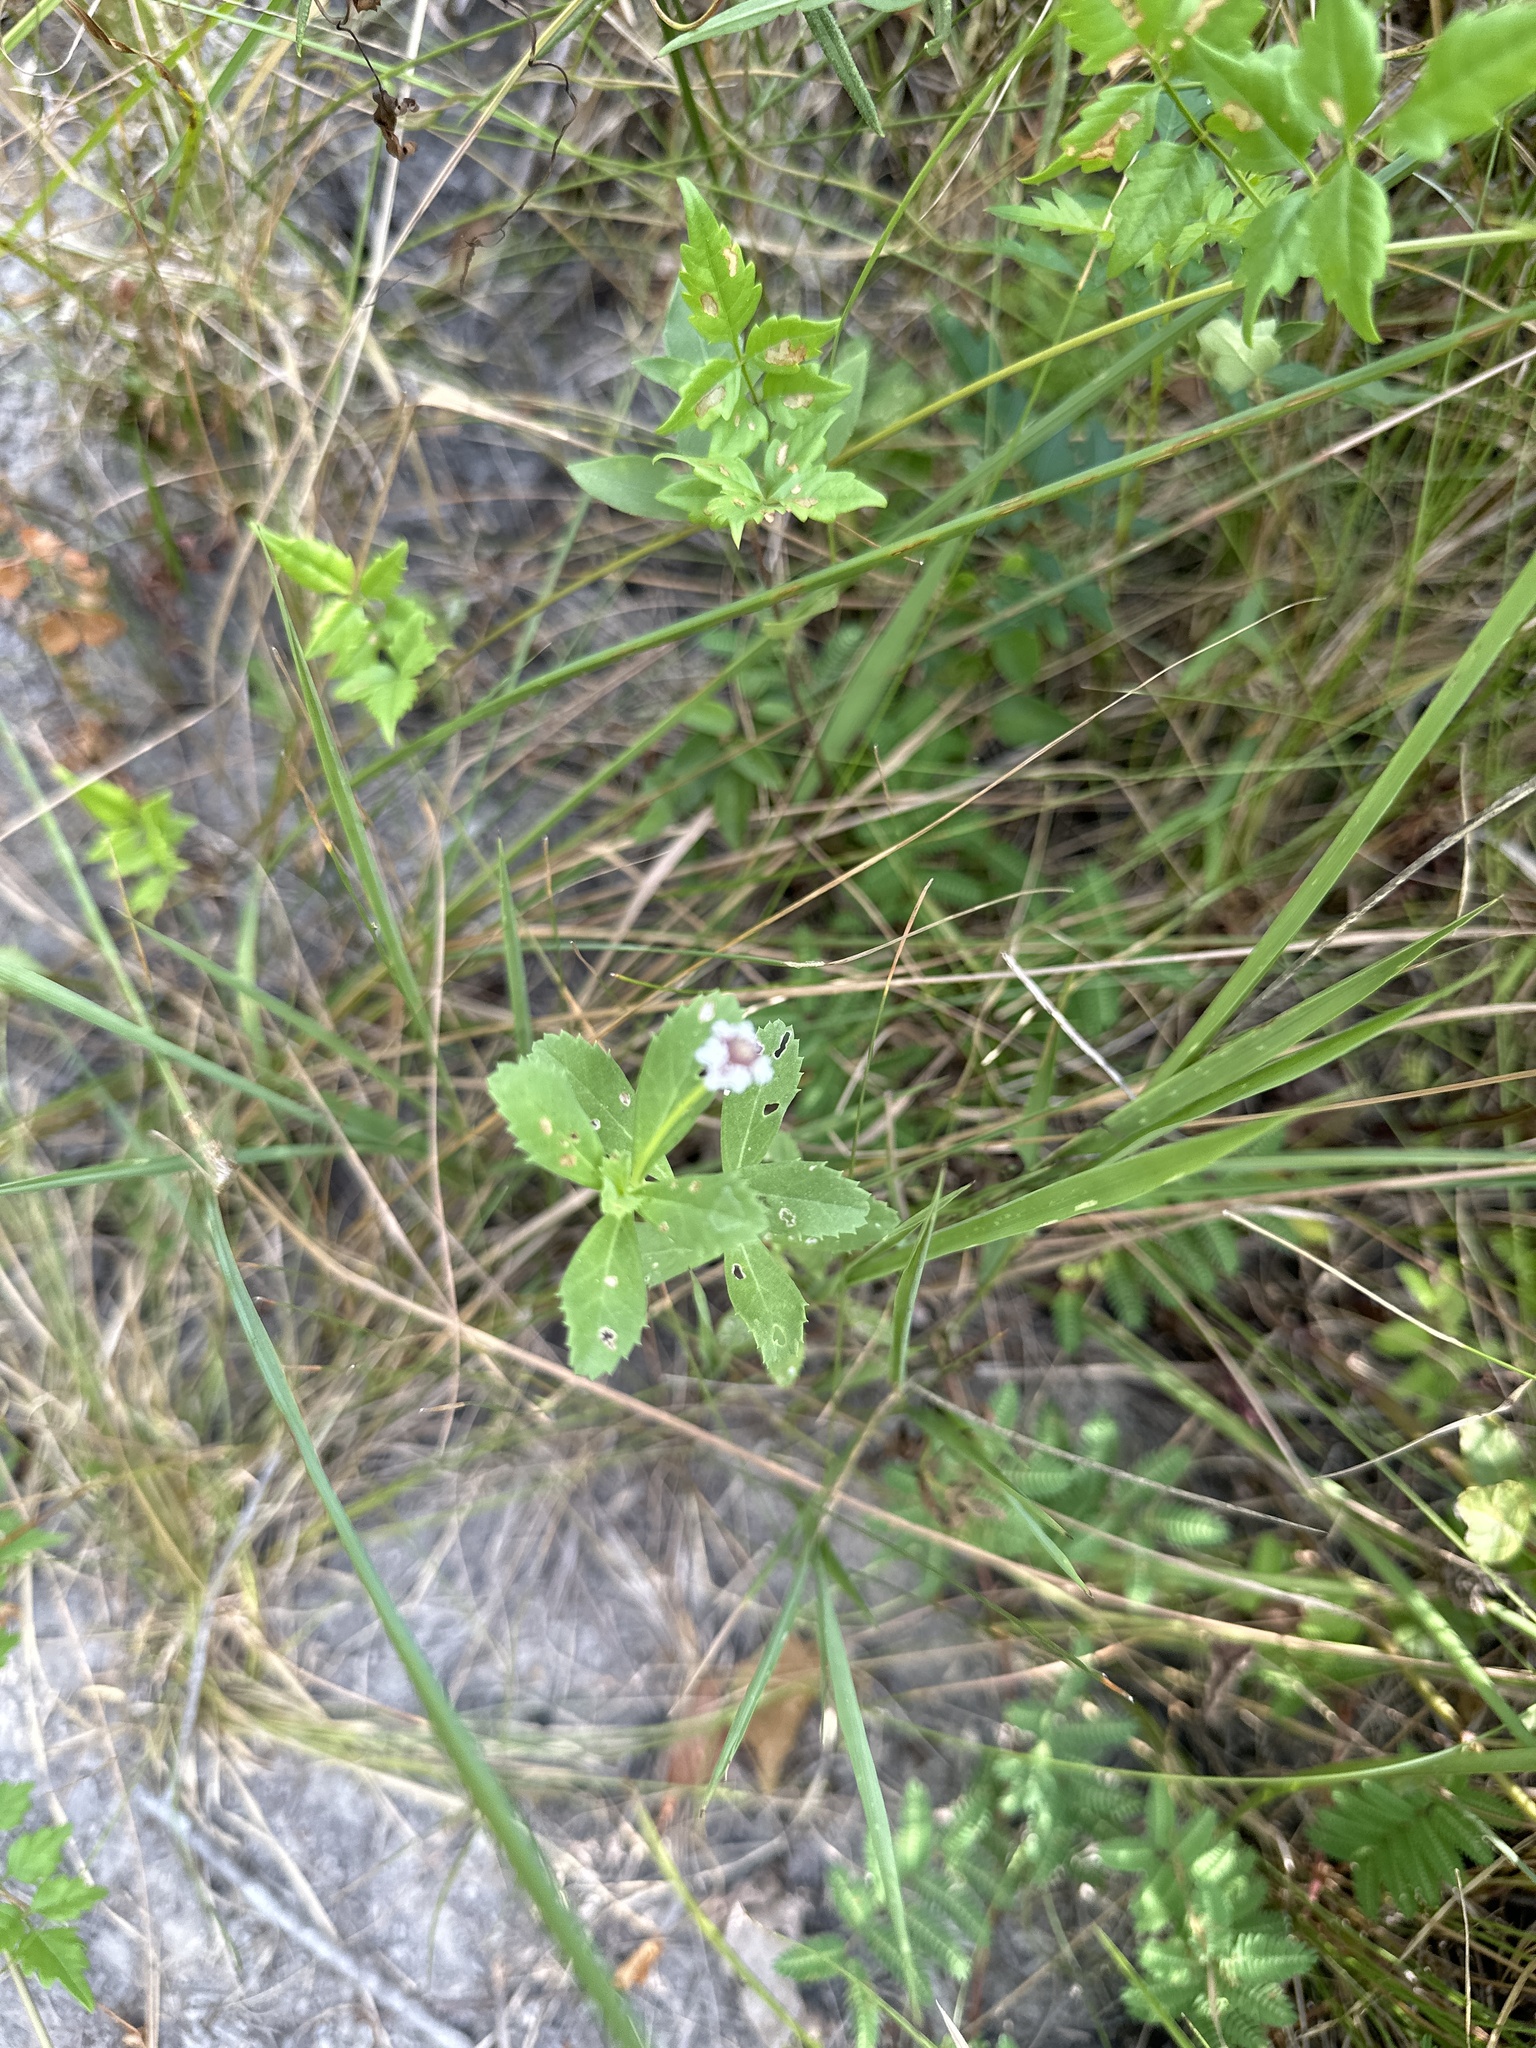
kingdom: Plantae
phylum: Tracheophyta
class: Magnoliopsida
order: Lamiales
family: Verbenaceae
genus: Phyla
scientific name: Phyla nodiflora
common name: Frogfruit
